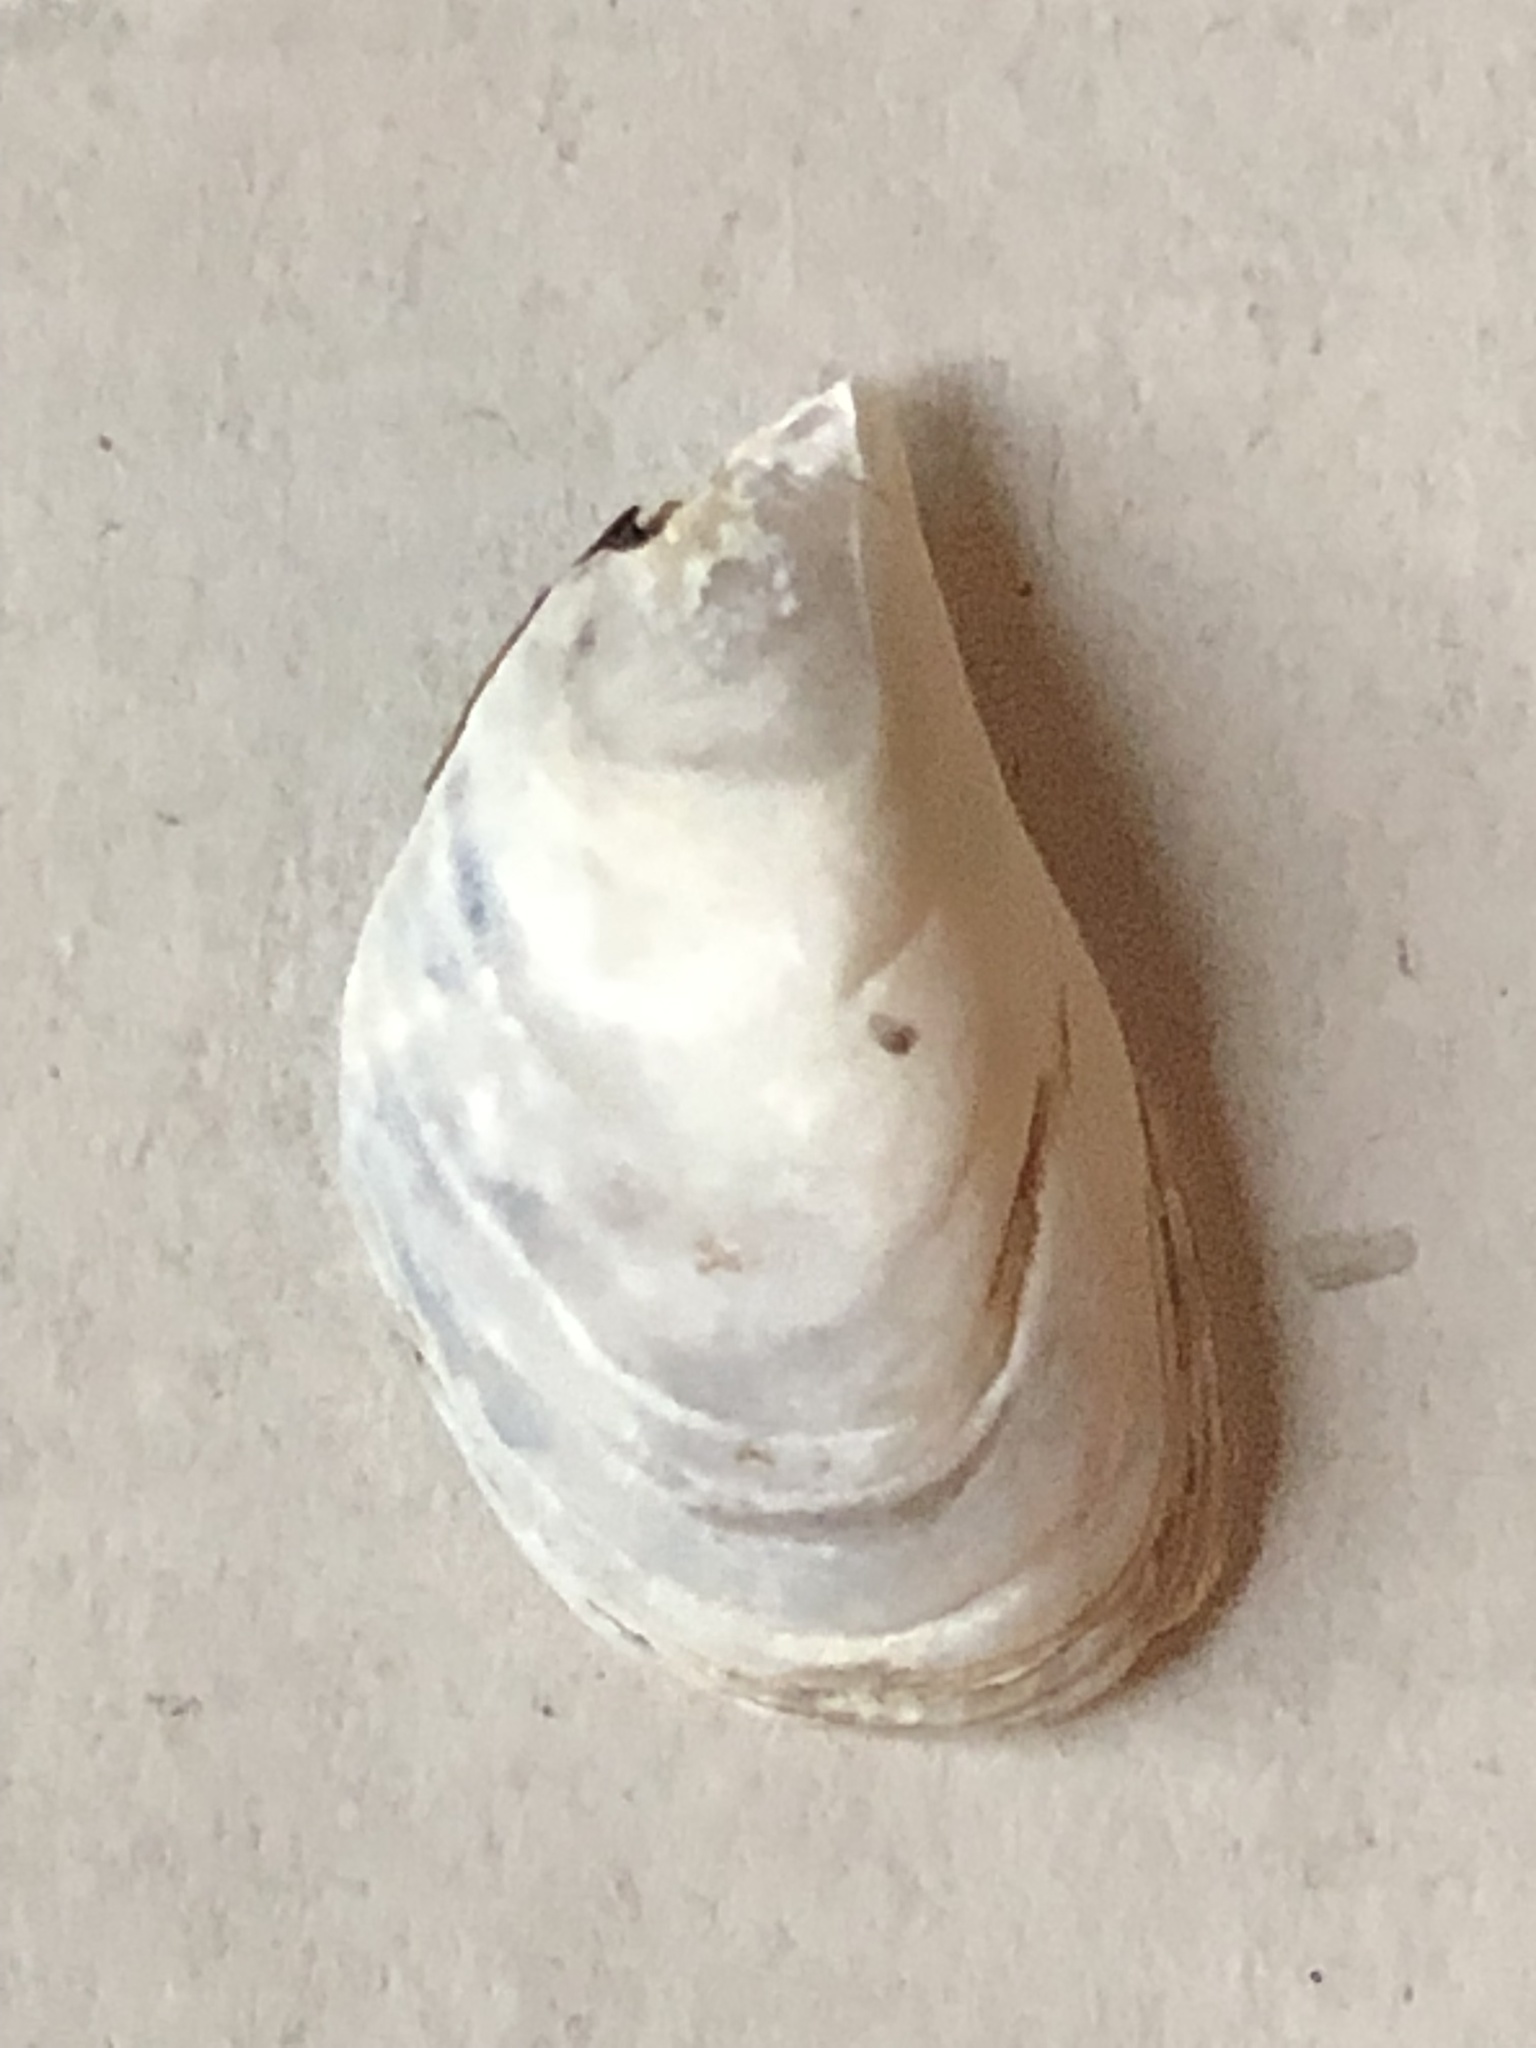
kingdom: Animalia
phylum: Mollusca
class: Bivalvia
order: Myida
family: Dreissenidae
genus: Dreissena
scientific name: Dreissena bugensis
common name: Quagga mussel
